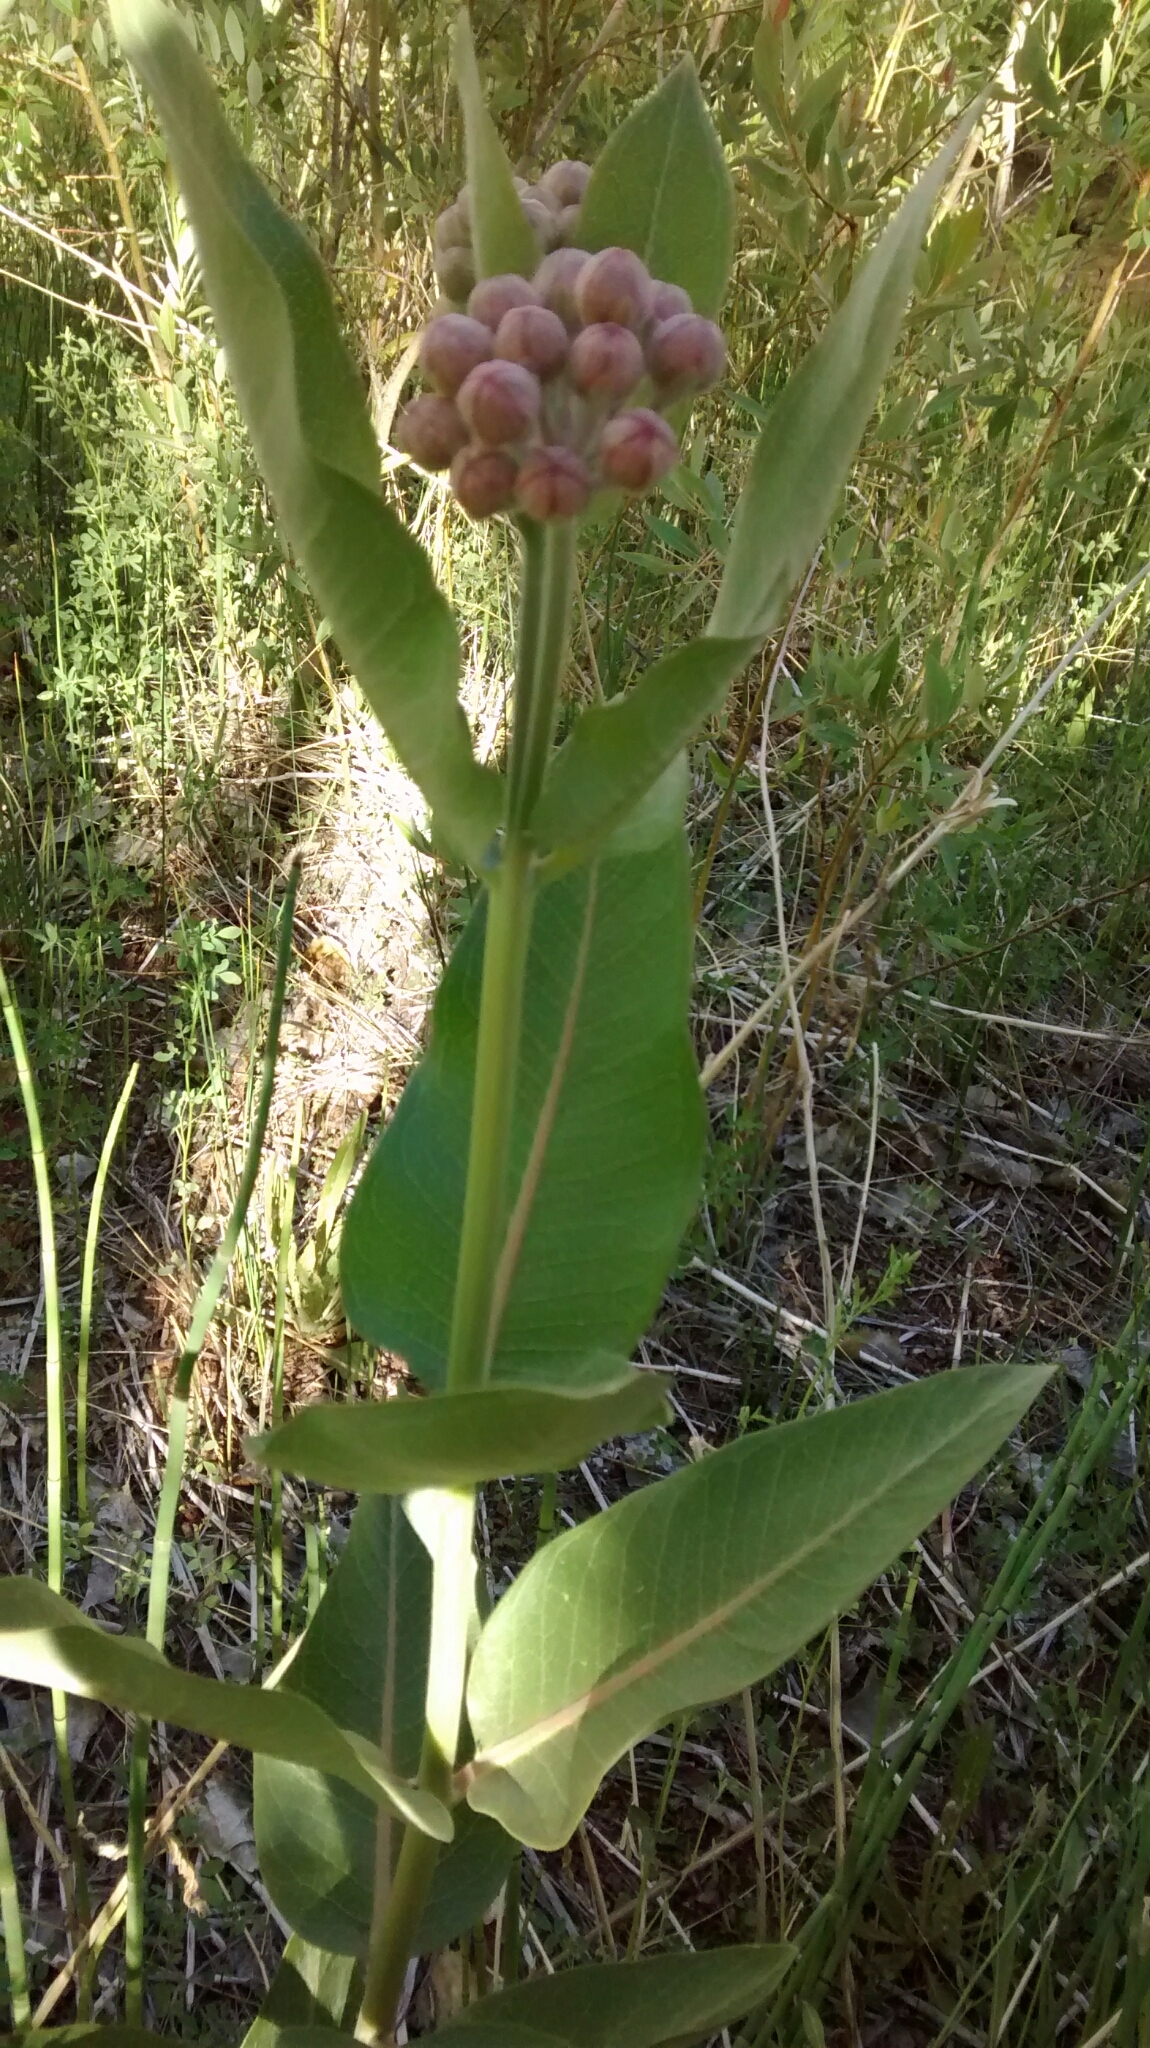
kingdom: Plantae
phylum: Tracheophyta
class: Magnoliopsida
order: Gentianales
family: Apocynaceae
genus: Asclepias
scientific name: Asclepias speciosa
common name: Showy milkweed
